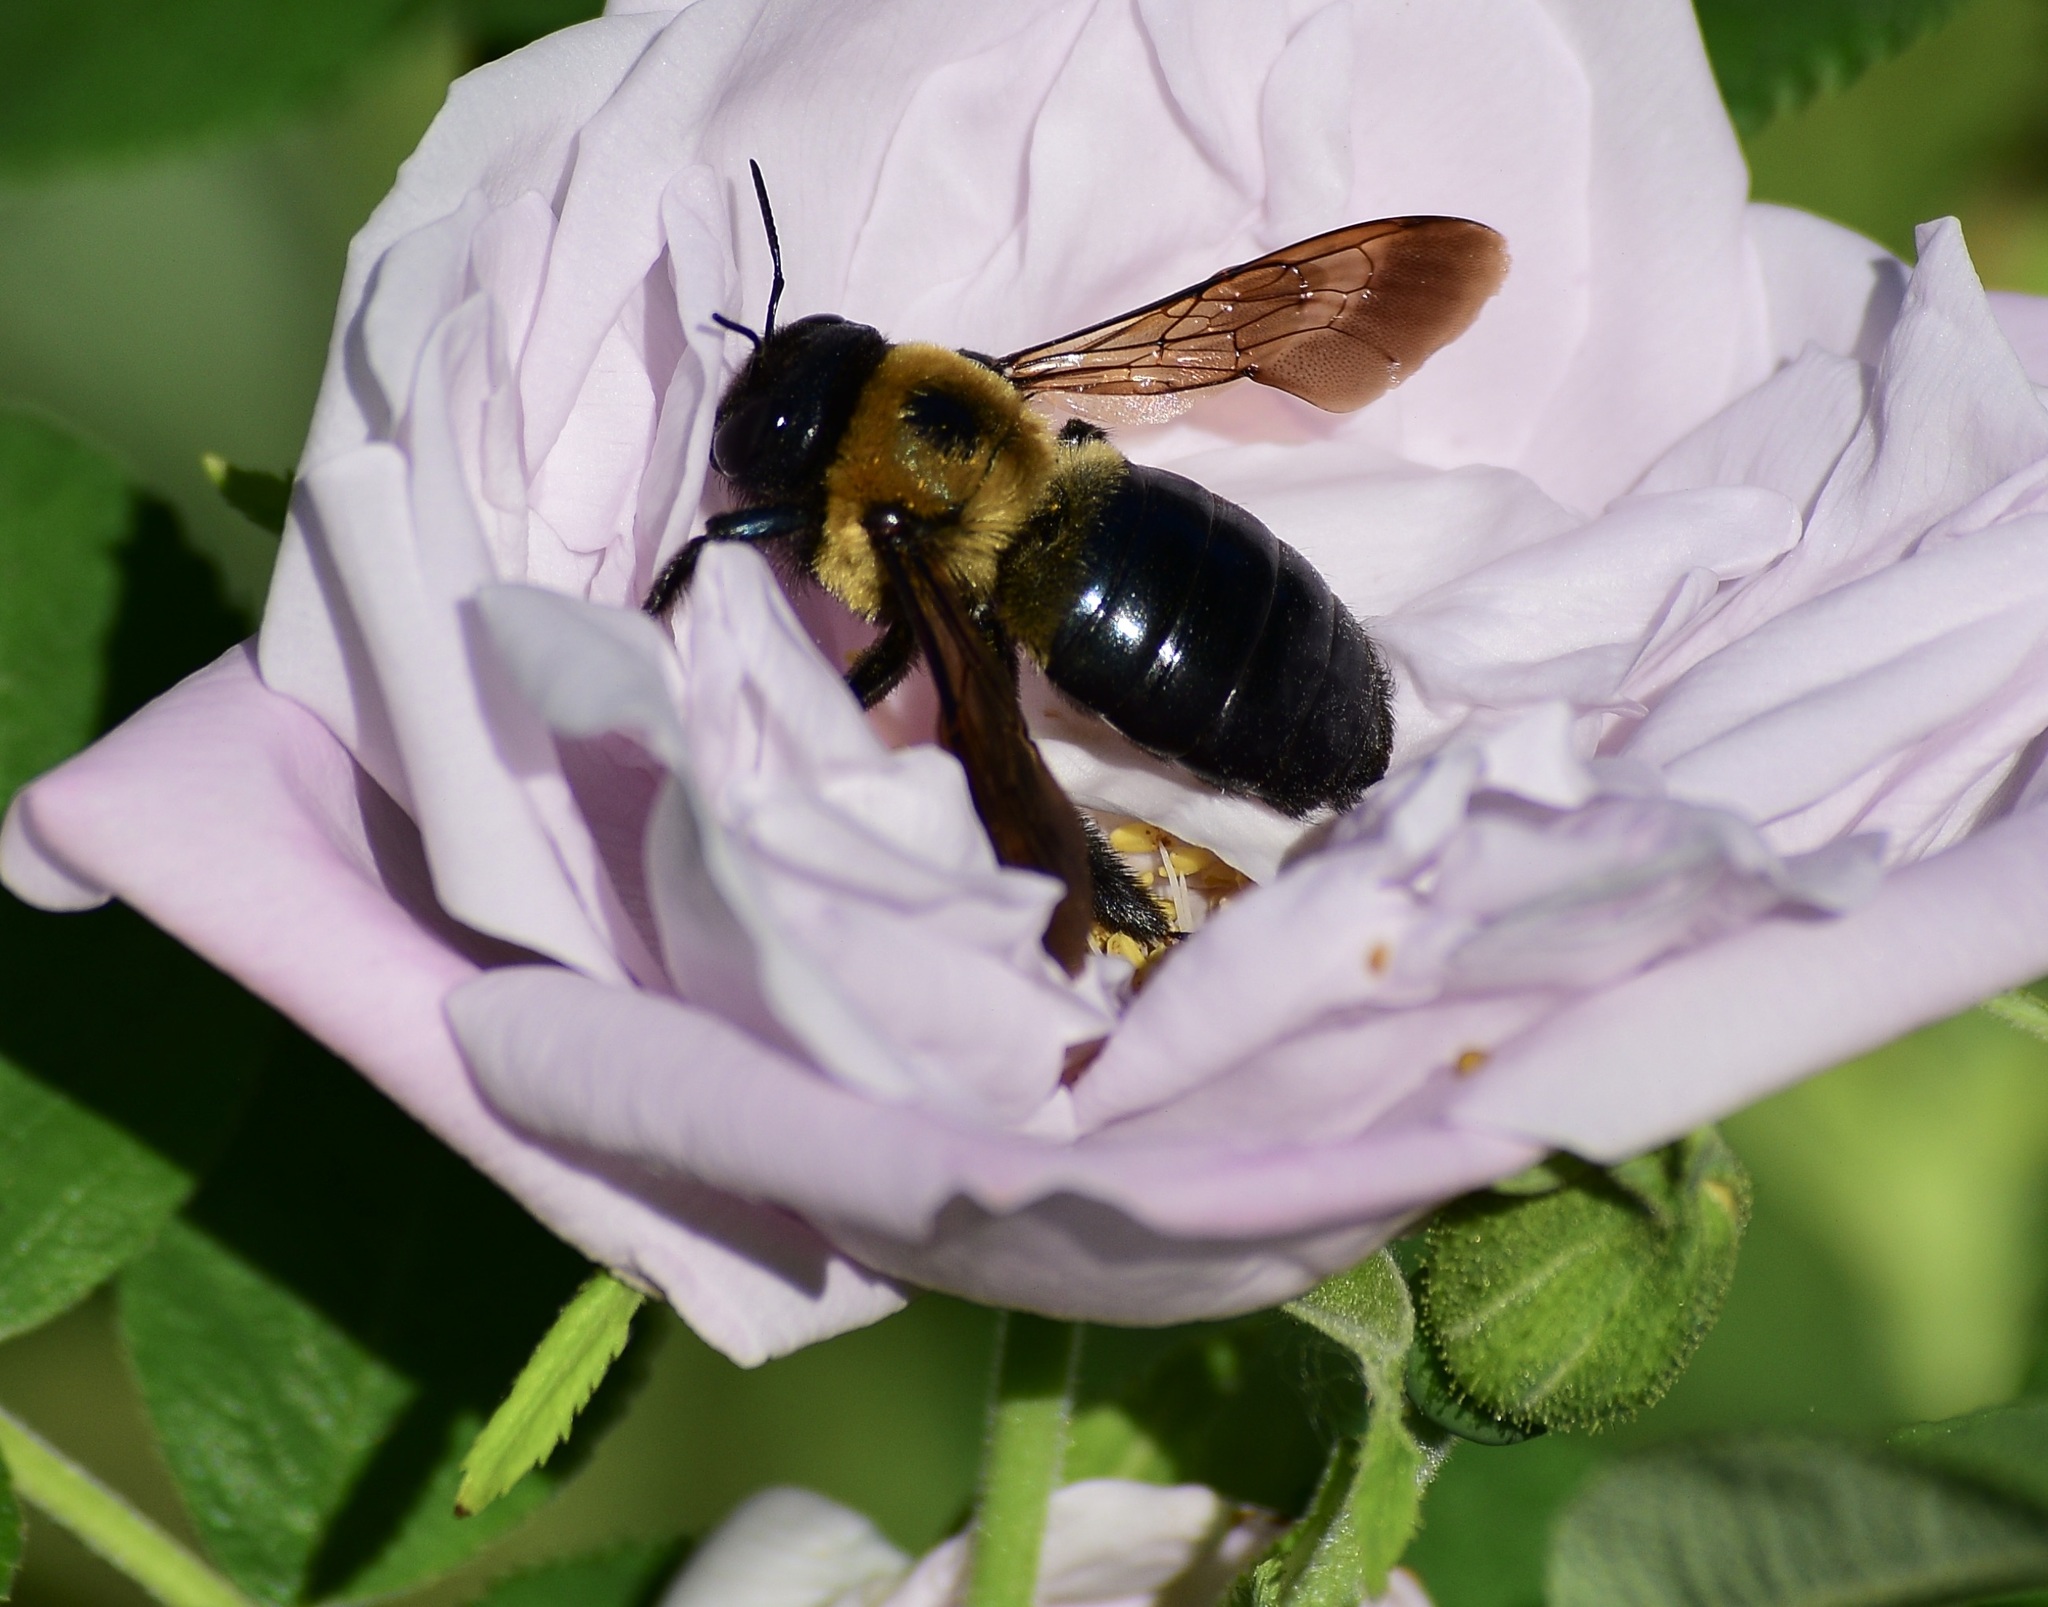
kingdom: Animalia
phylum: Arthropoda
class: Insecta
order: Hymenoptera
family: Apidae
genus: Xylocopa
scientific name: Xylocopa virginica
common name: Carpenter bee
